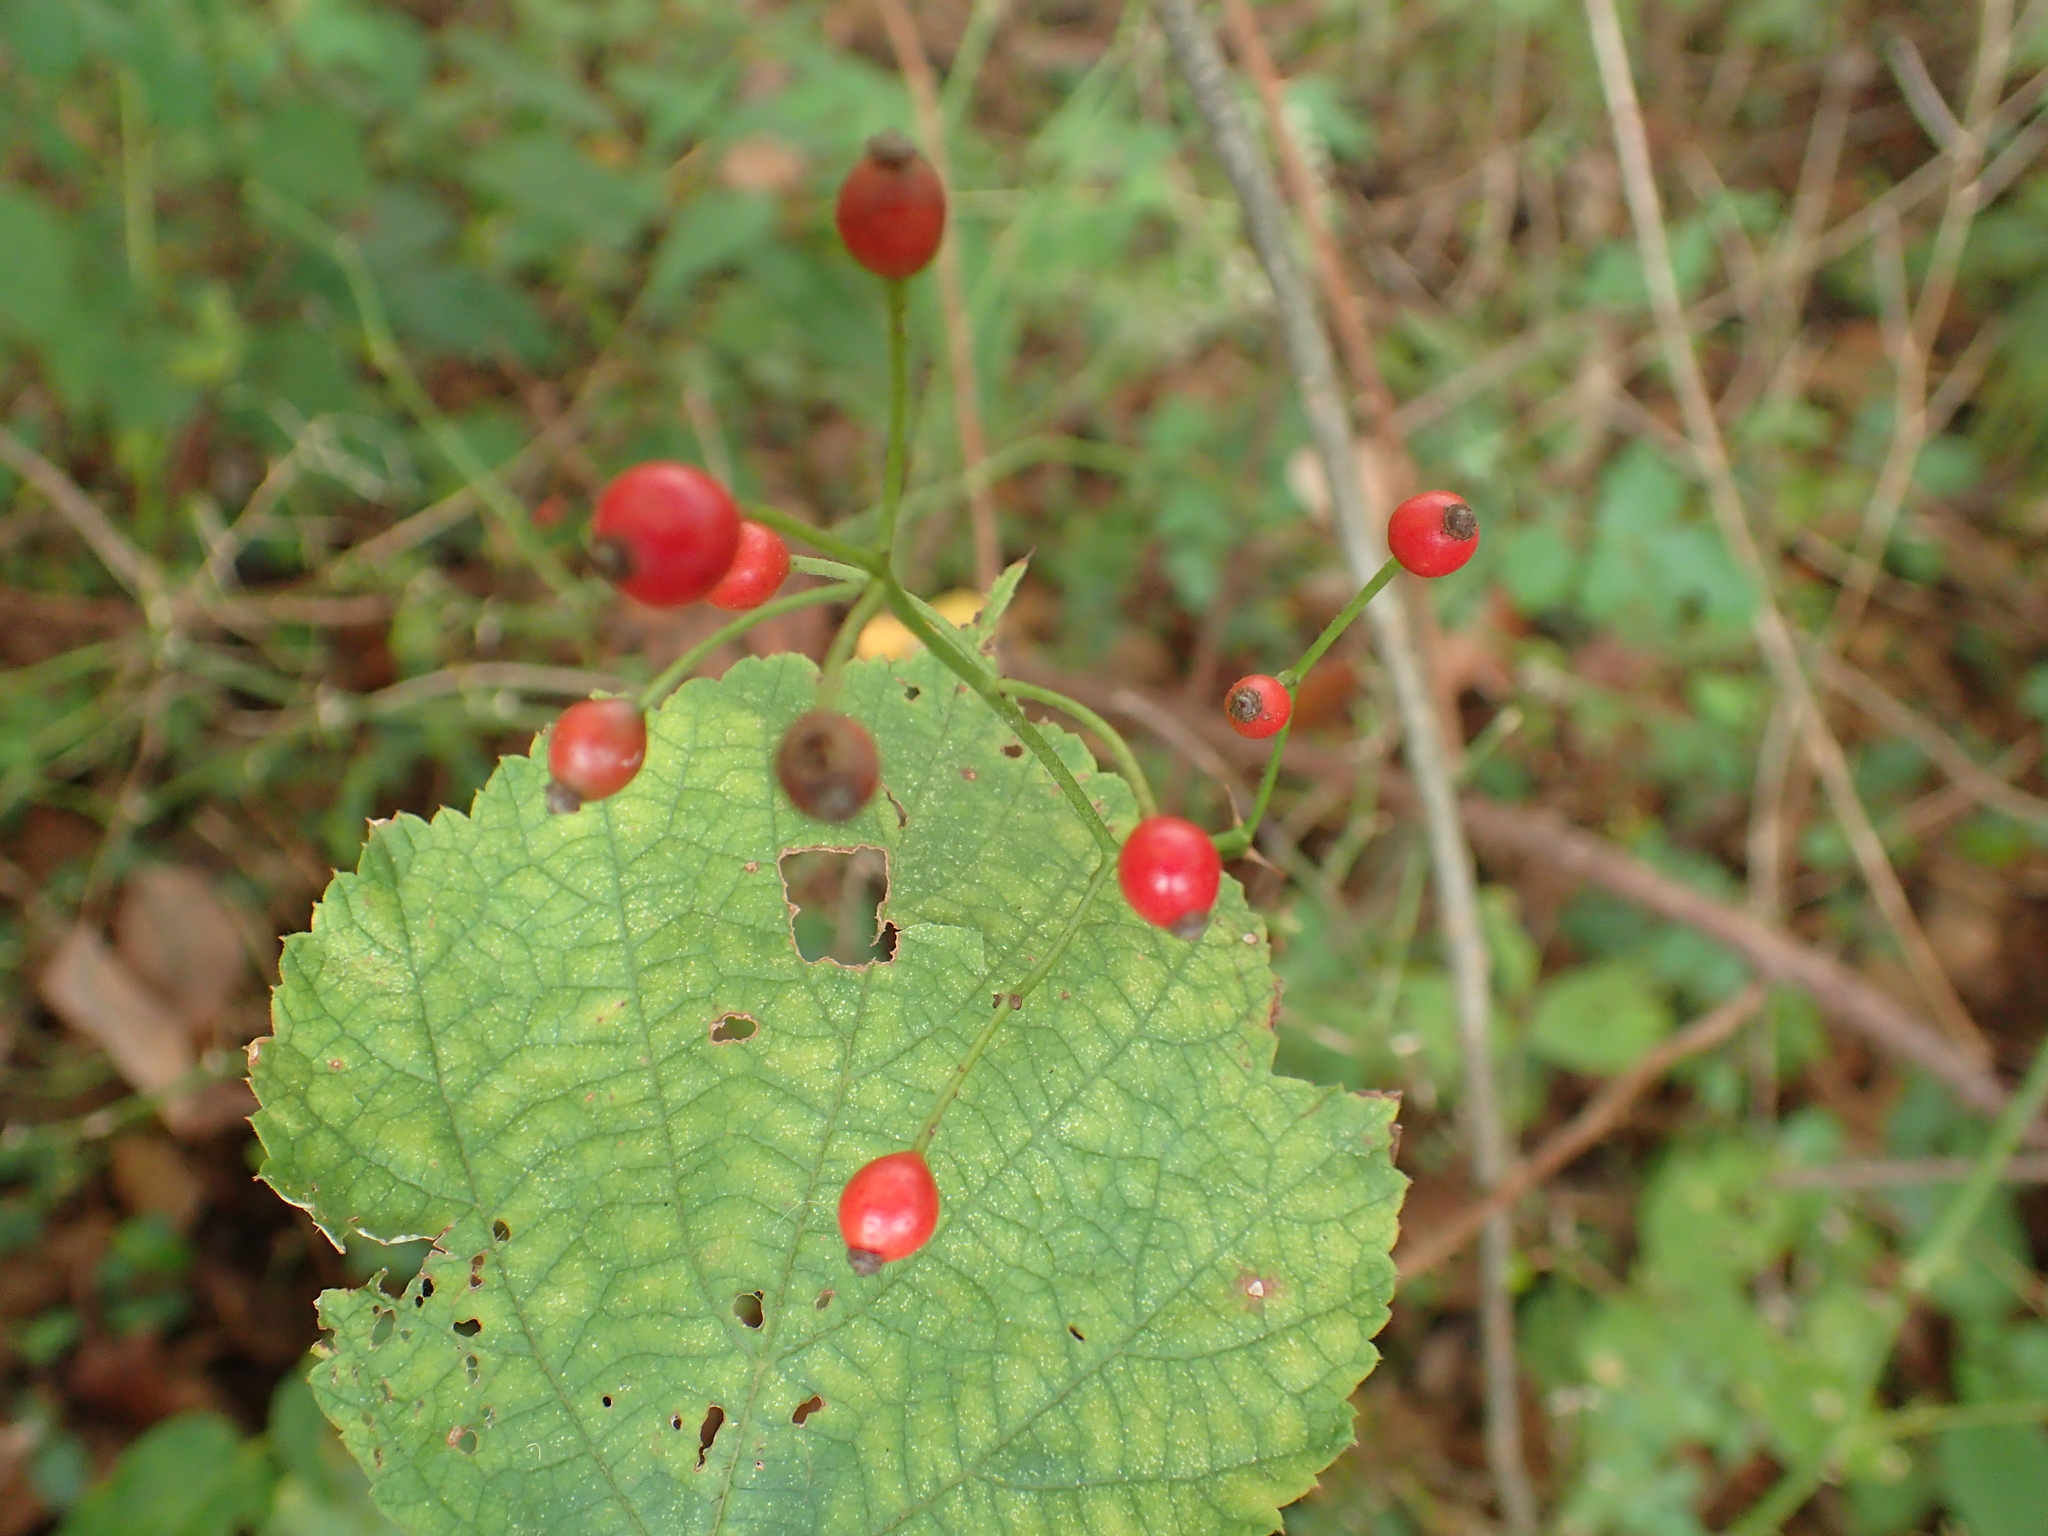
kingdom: Plantae
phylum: Tracheophyta
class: Magnoliopsida
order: Rosales
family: Rosaceae
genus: Rosa
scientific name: Rosa multiflora
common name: Multiflora rose
